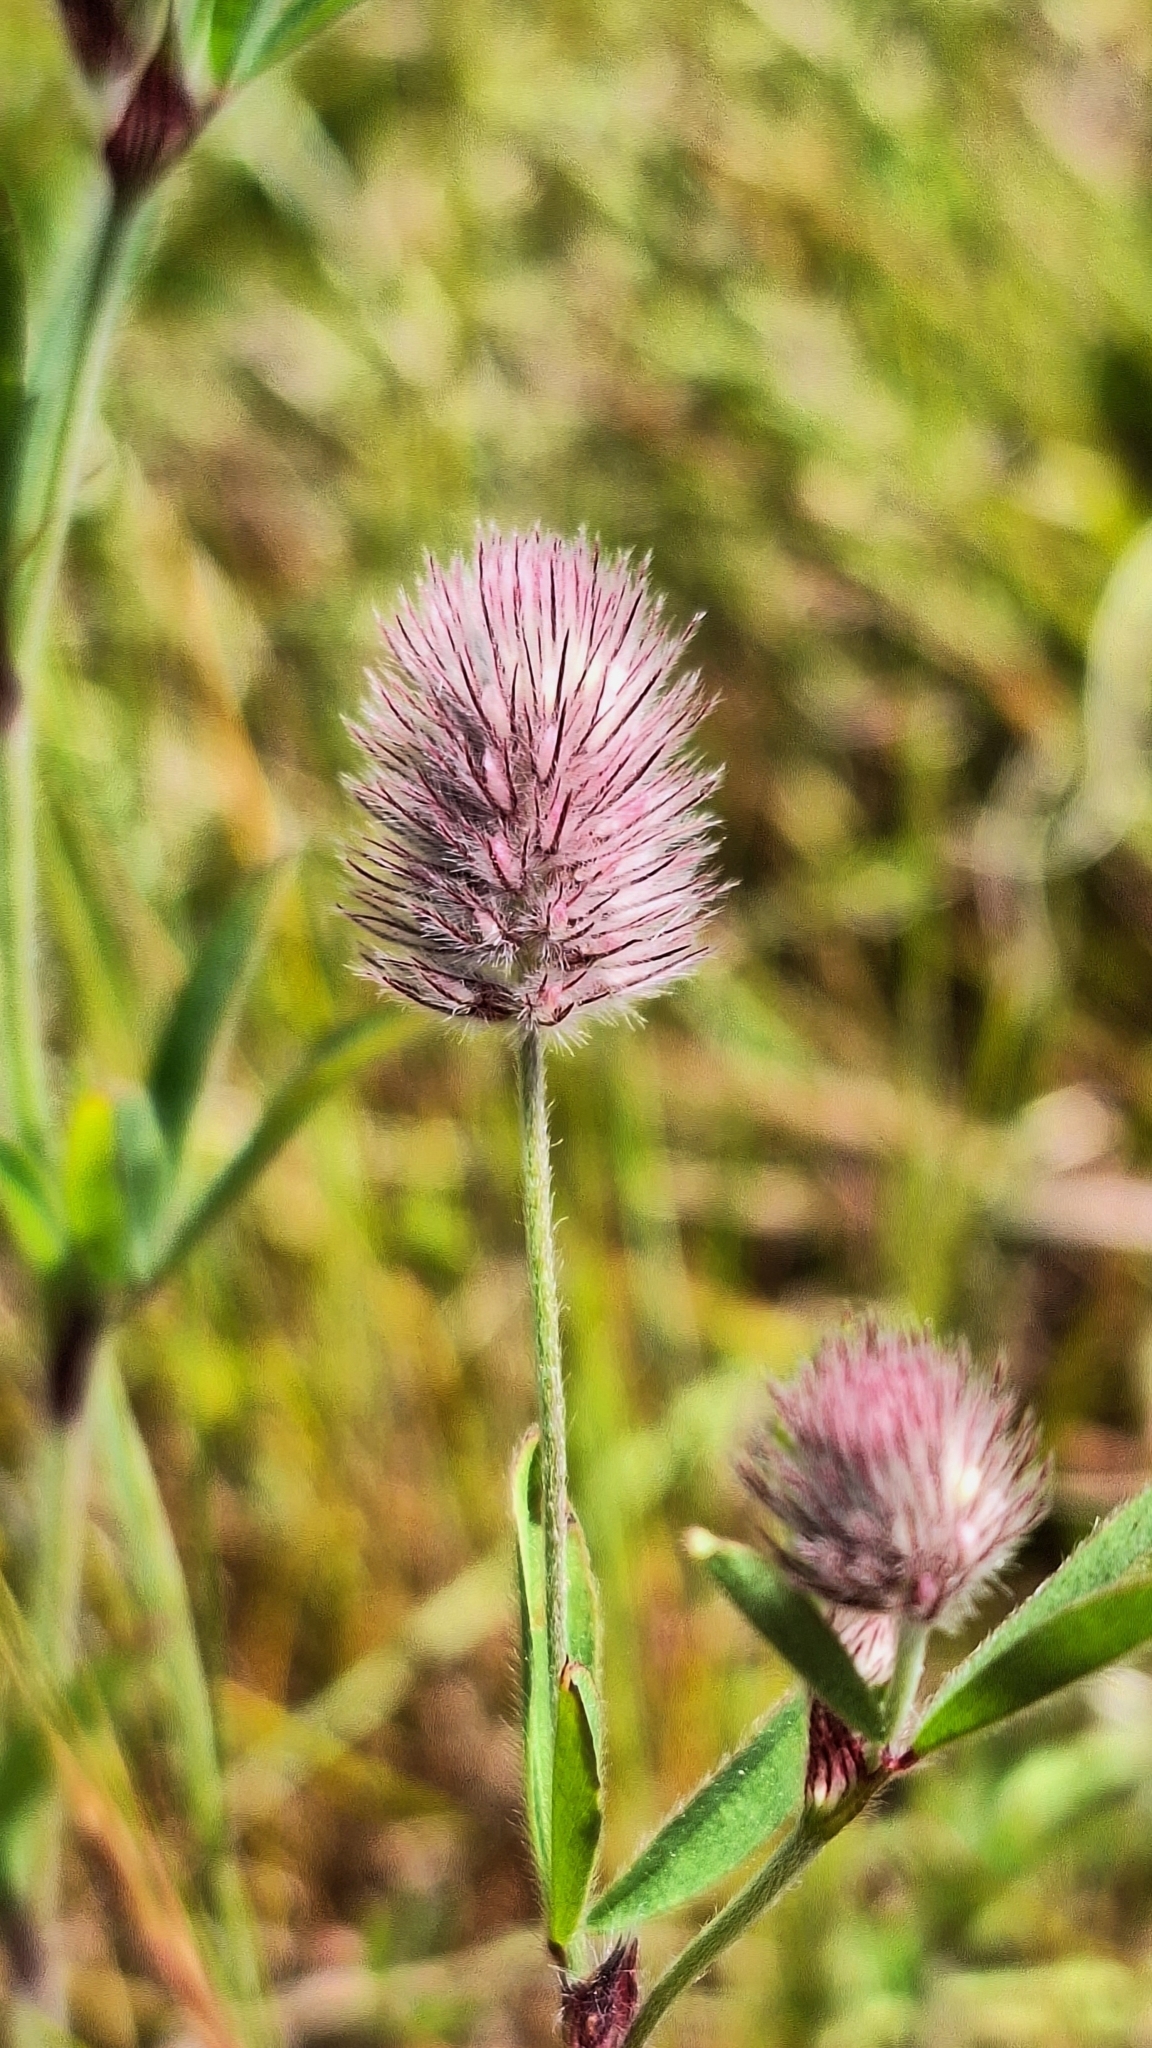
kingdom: Plantae
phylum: Tracheophyta
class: Magnoliopsida
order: Fabales
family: Fabaceae
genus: Trifolium
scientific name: Trifolium arvense
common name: Hare's-foot clover
